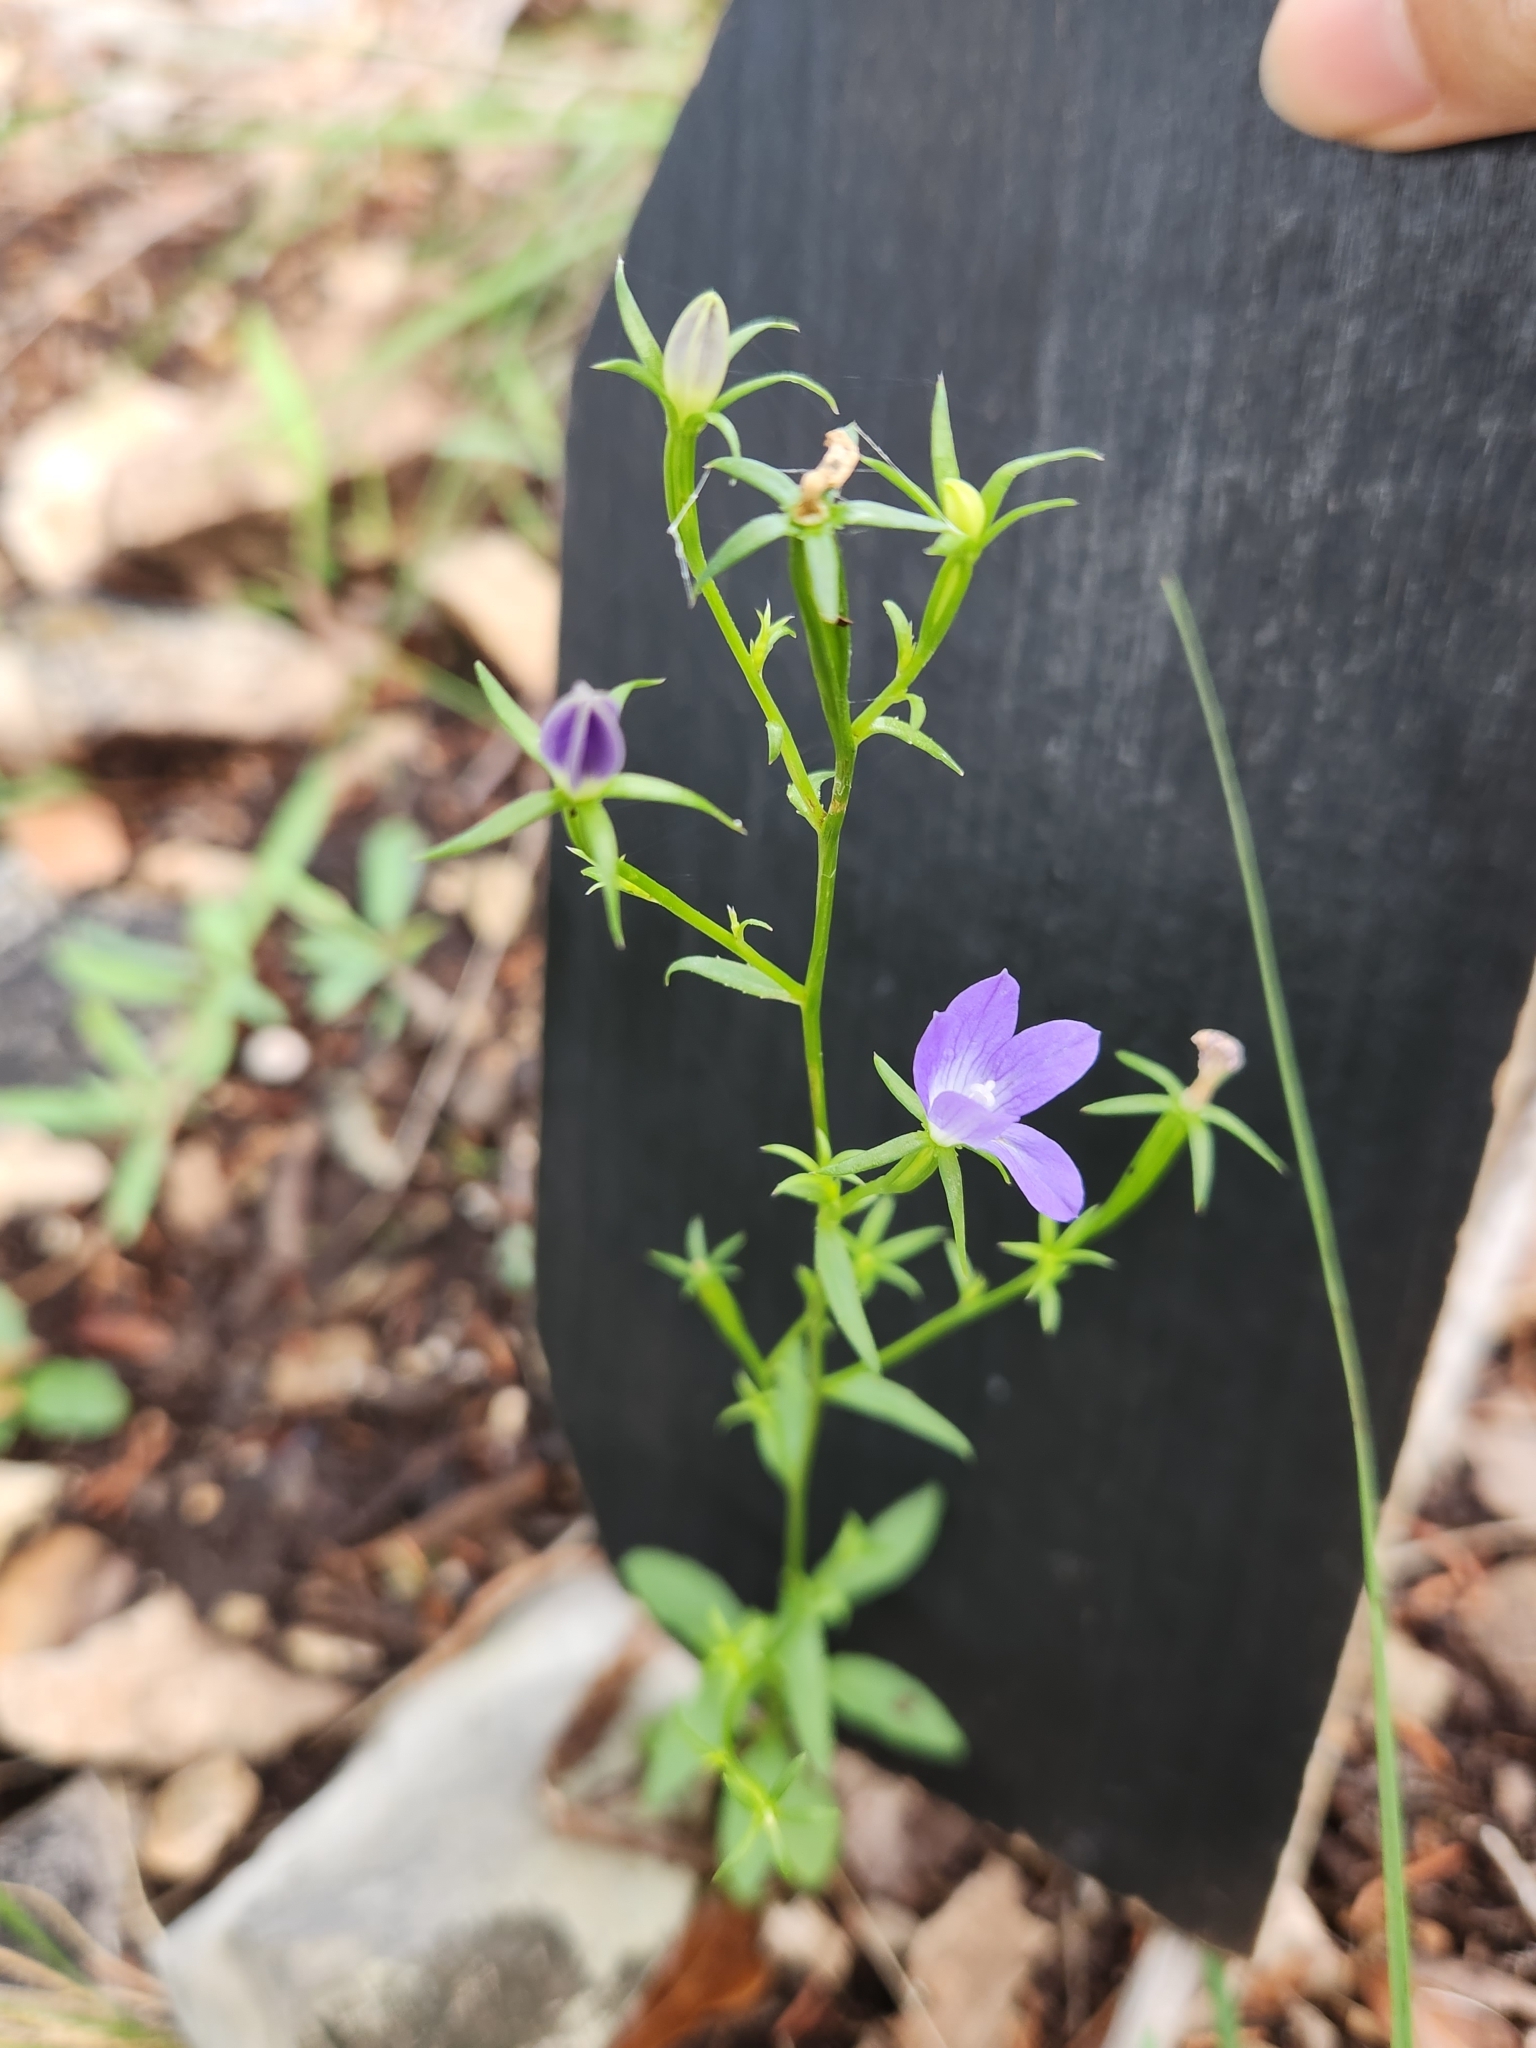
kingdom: Plantae
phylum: Tracheophyta
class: Magnoliopsida
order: Asterales
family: Campanulaceae
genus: Triodanis
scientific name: Triodanis coloradoensis
